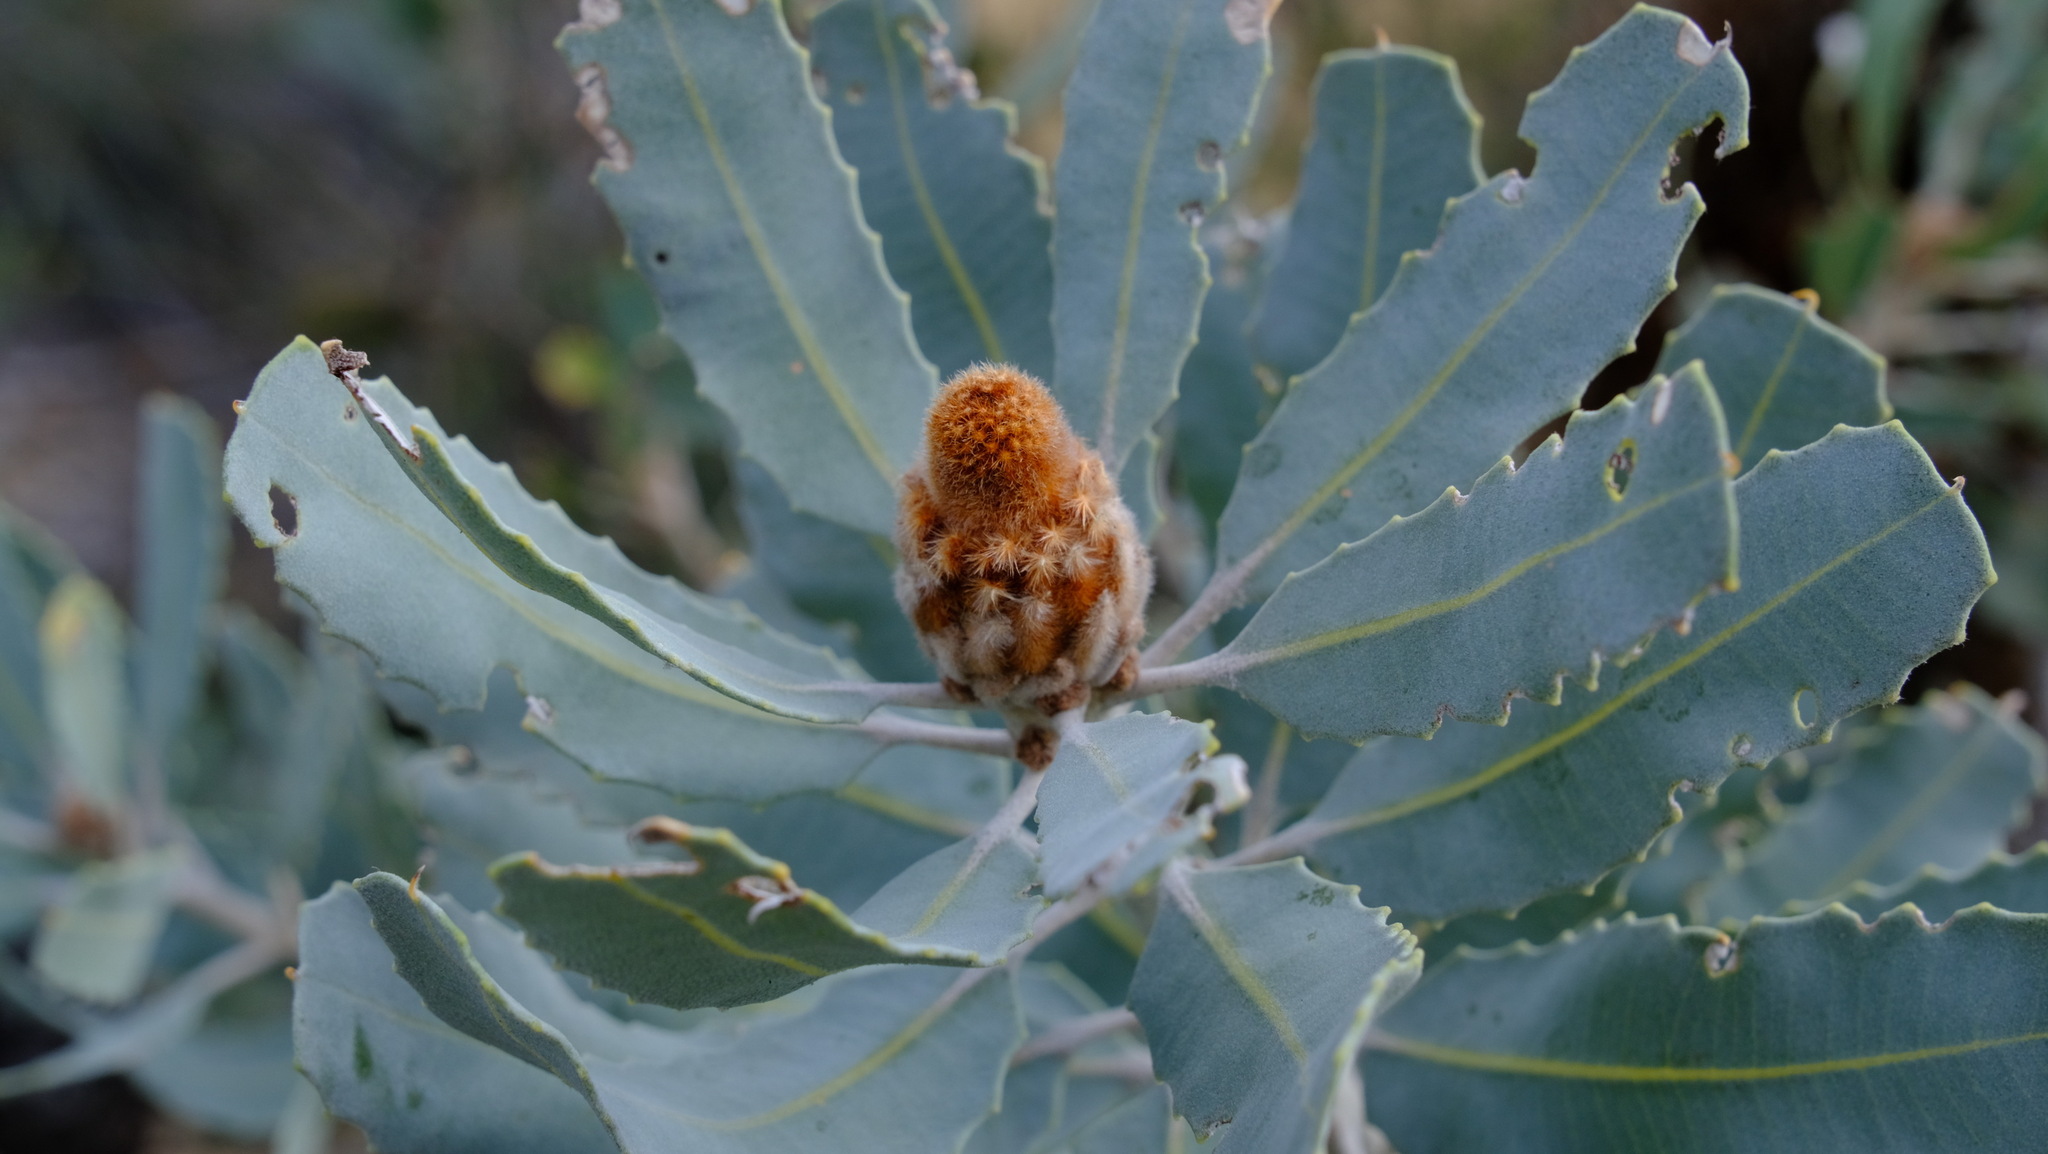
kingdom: Plantae
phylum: Tracheophyta
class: Magnoliopsida
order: Proteales
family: Proteaceae
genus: Banksia
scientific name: Banksia sceptrum
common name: Sceptre banksia
